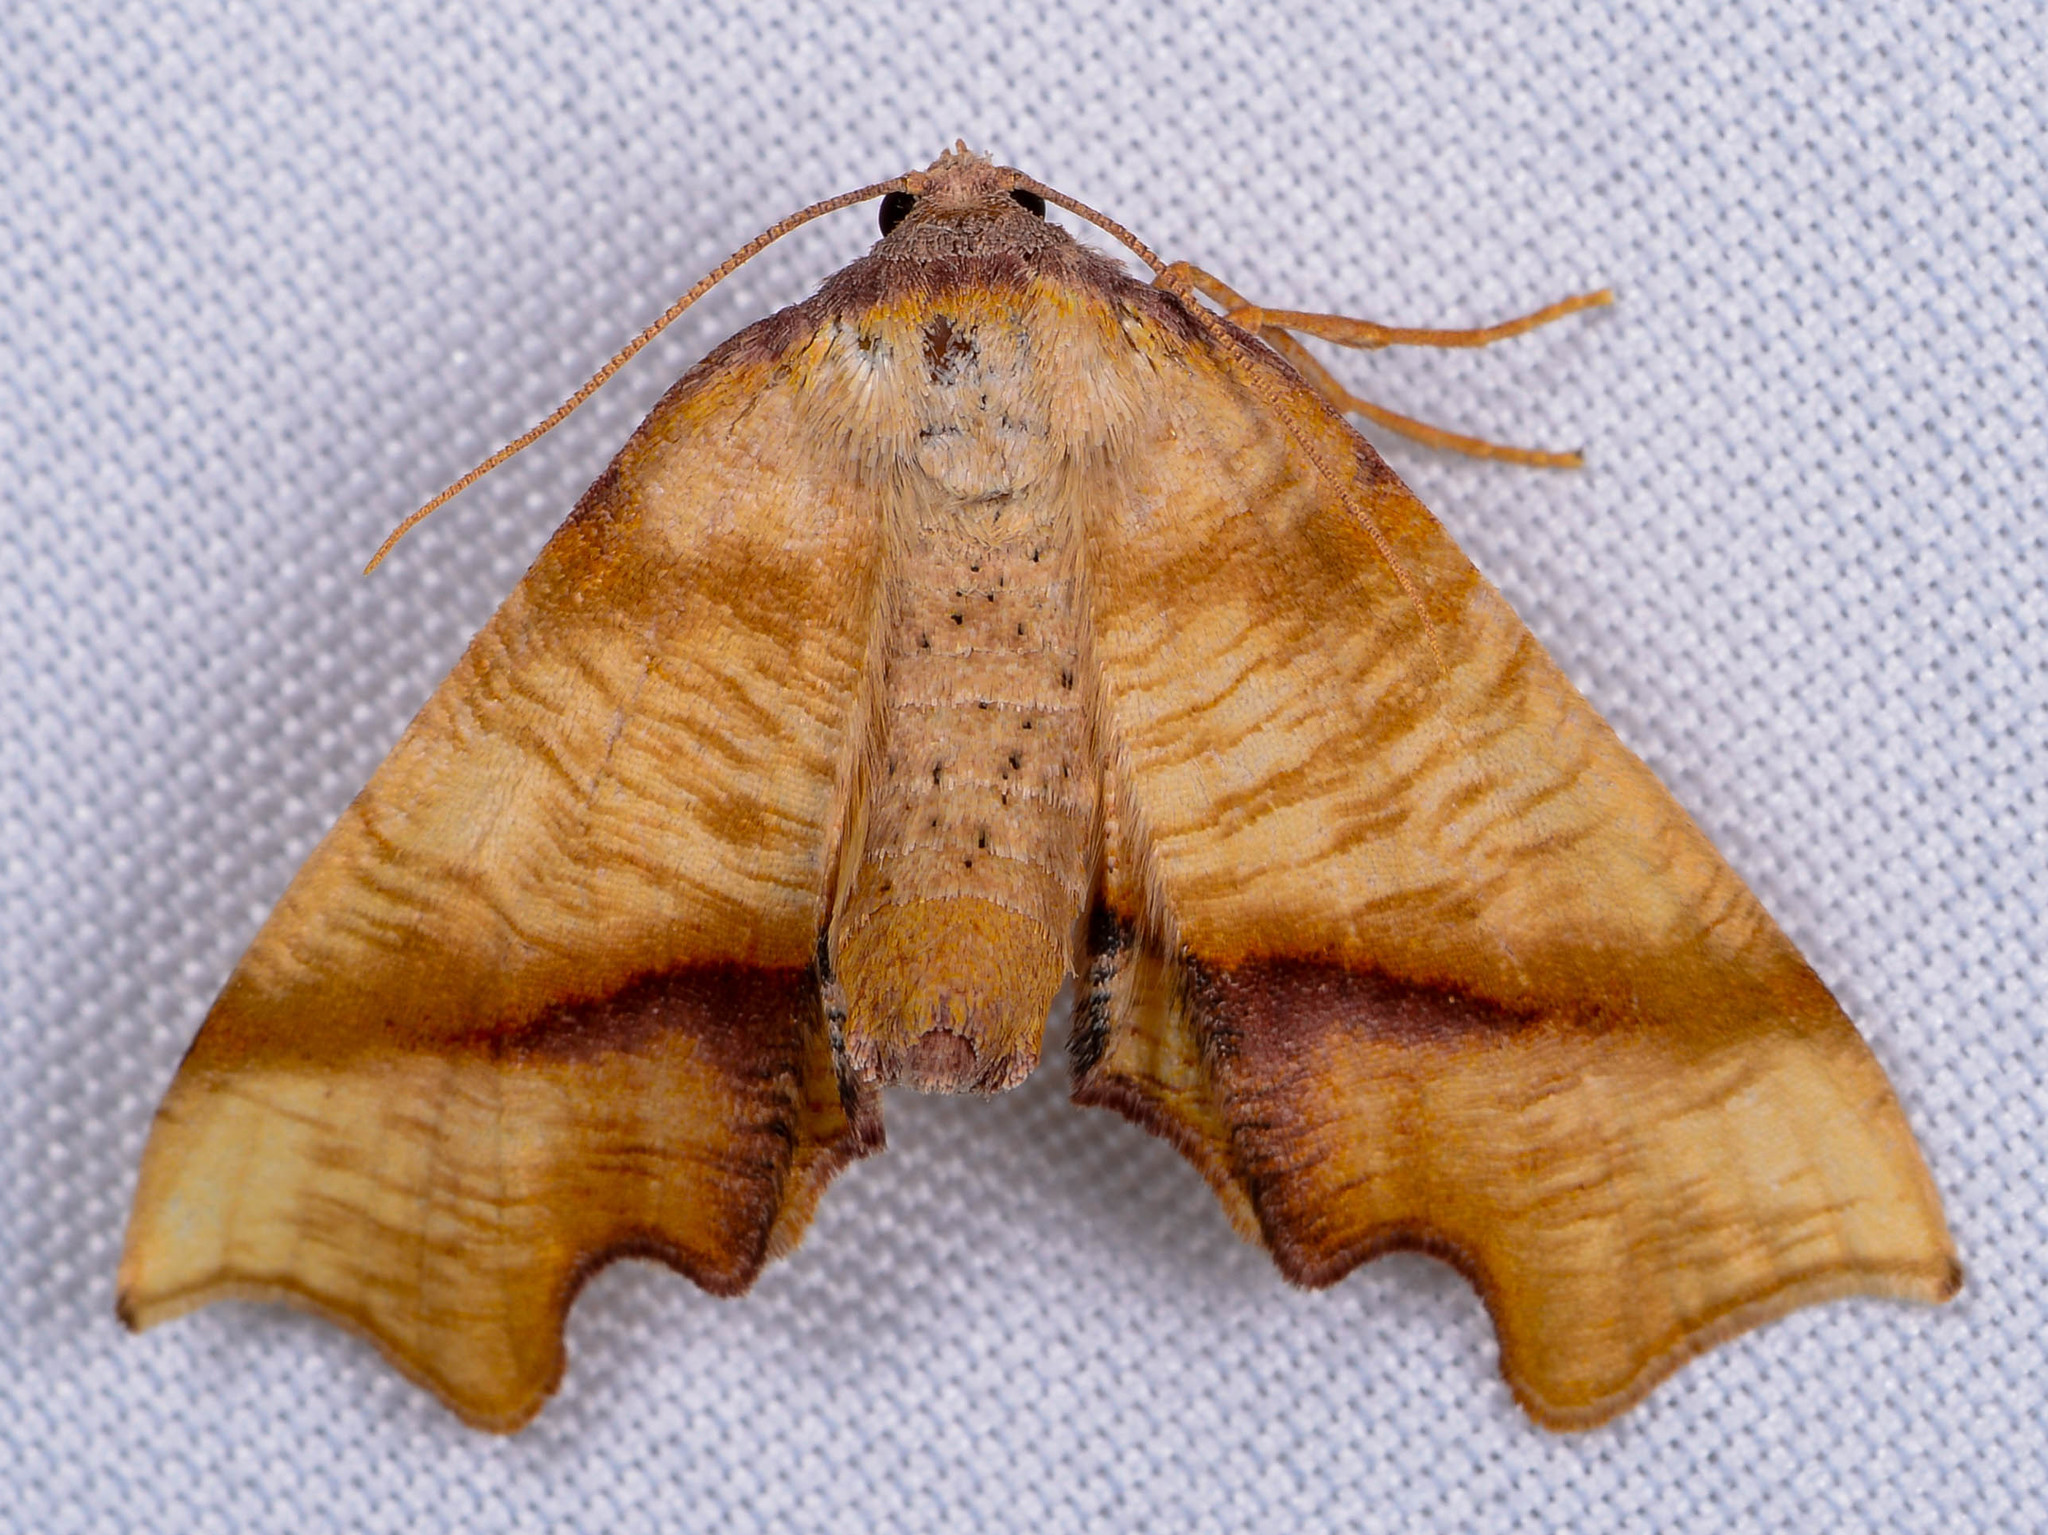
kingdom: Animalia
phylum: Arthropoda
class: Insecta
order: Lepidoptera
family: Geometridae
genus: Plagodis
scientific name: Plagodis fervidaria
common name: Fervid plagodis
